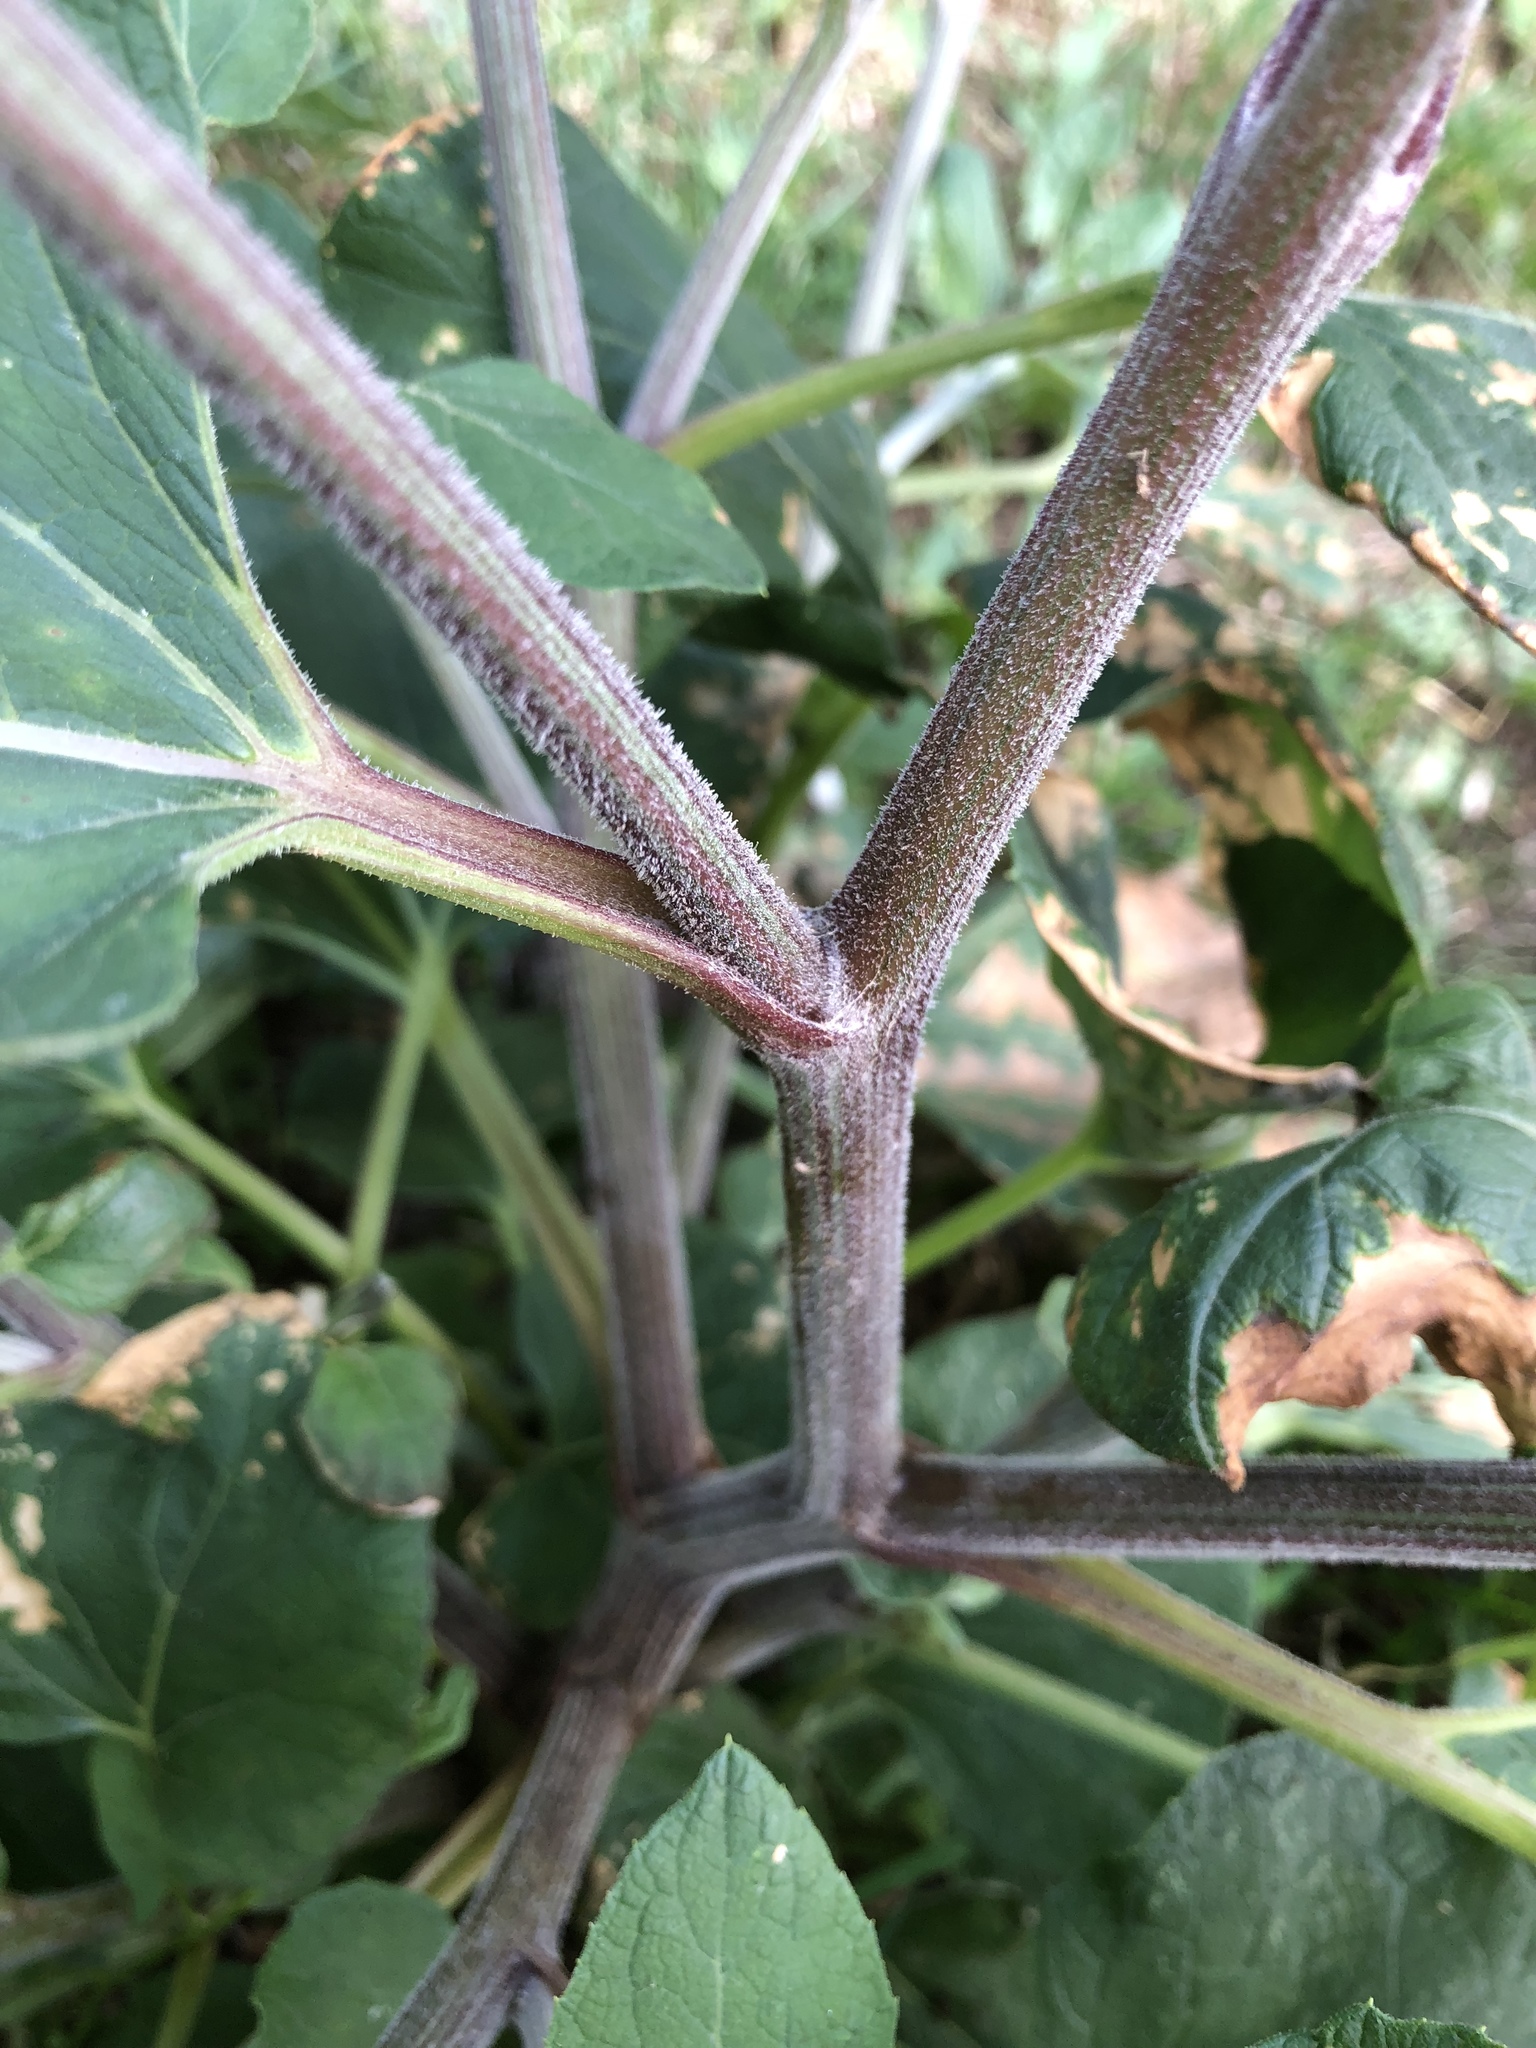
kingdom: Plantae
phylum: Tracheophyta
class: Magnoliopsida
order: Asterales
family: Asteraceae
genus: Arctium
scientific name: Arctium tomentosum
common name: Woolly burdock
